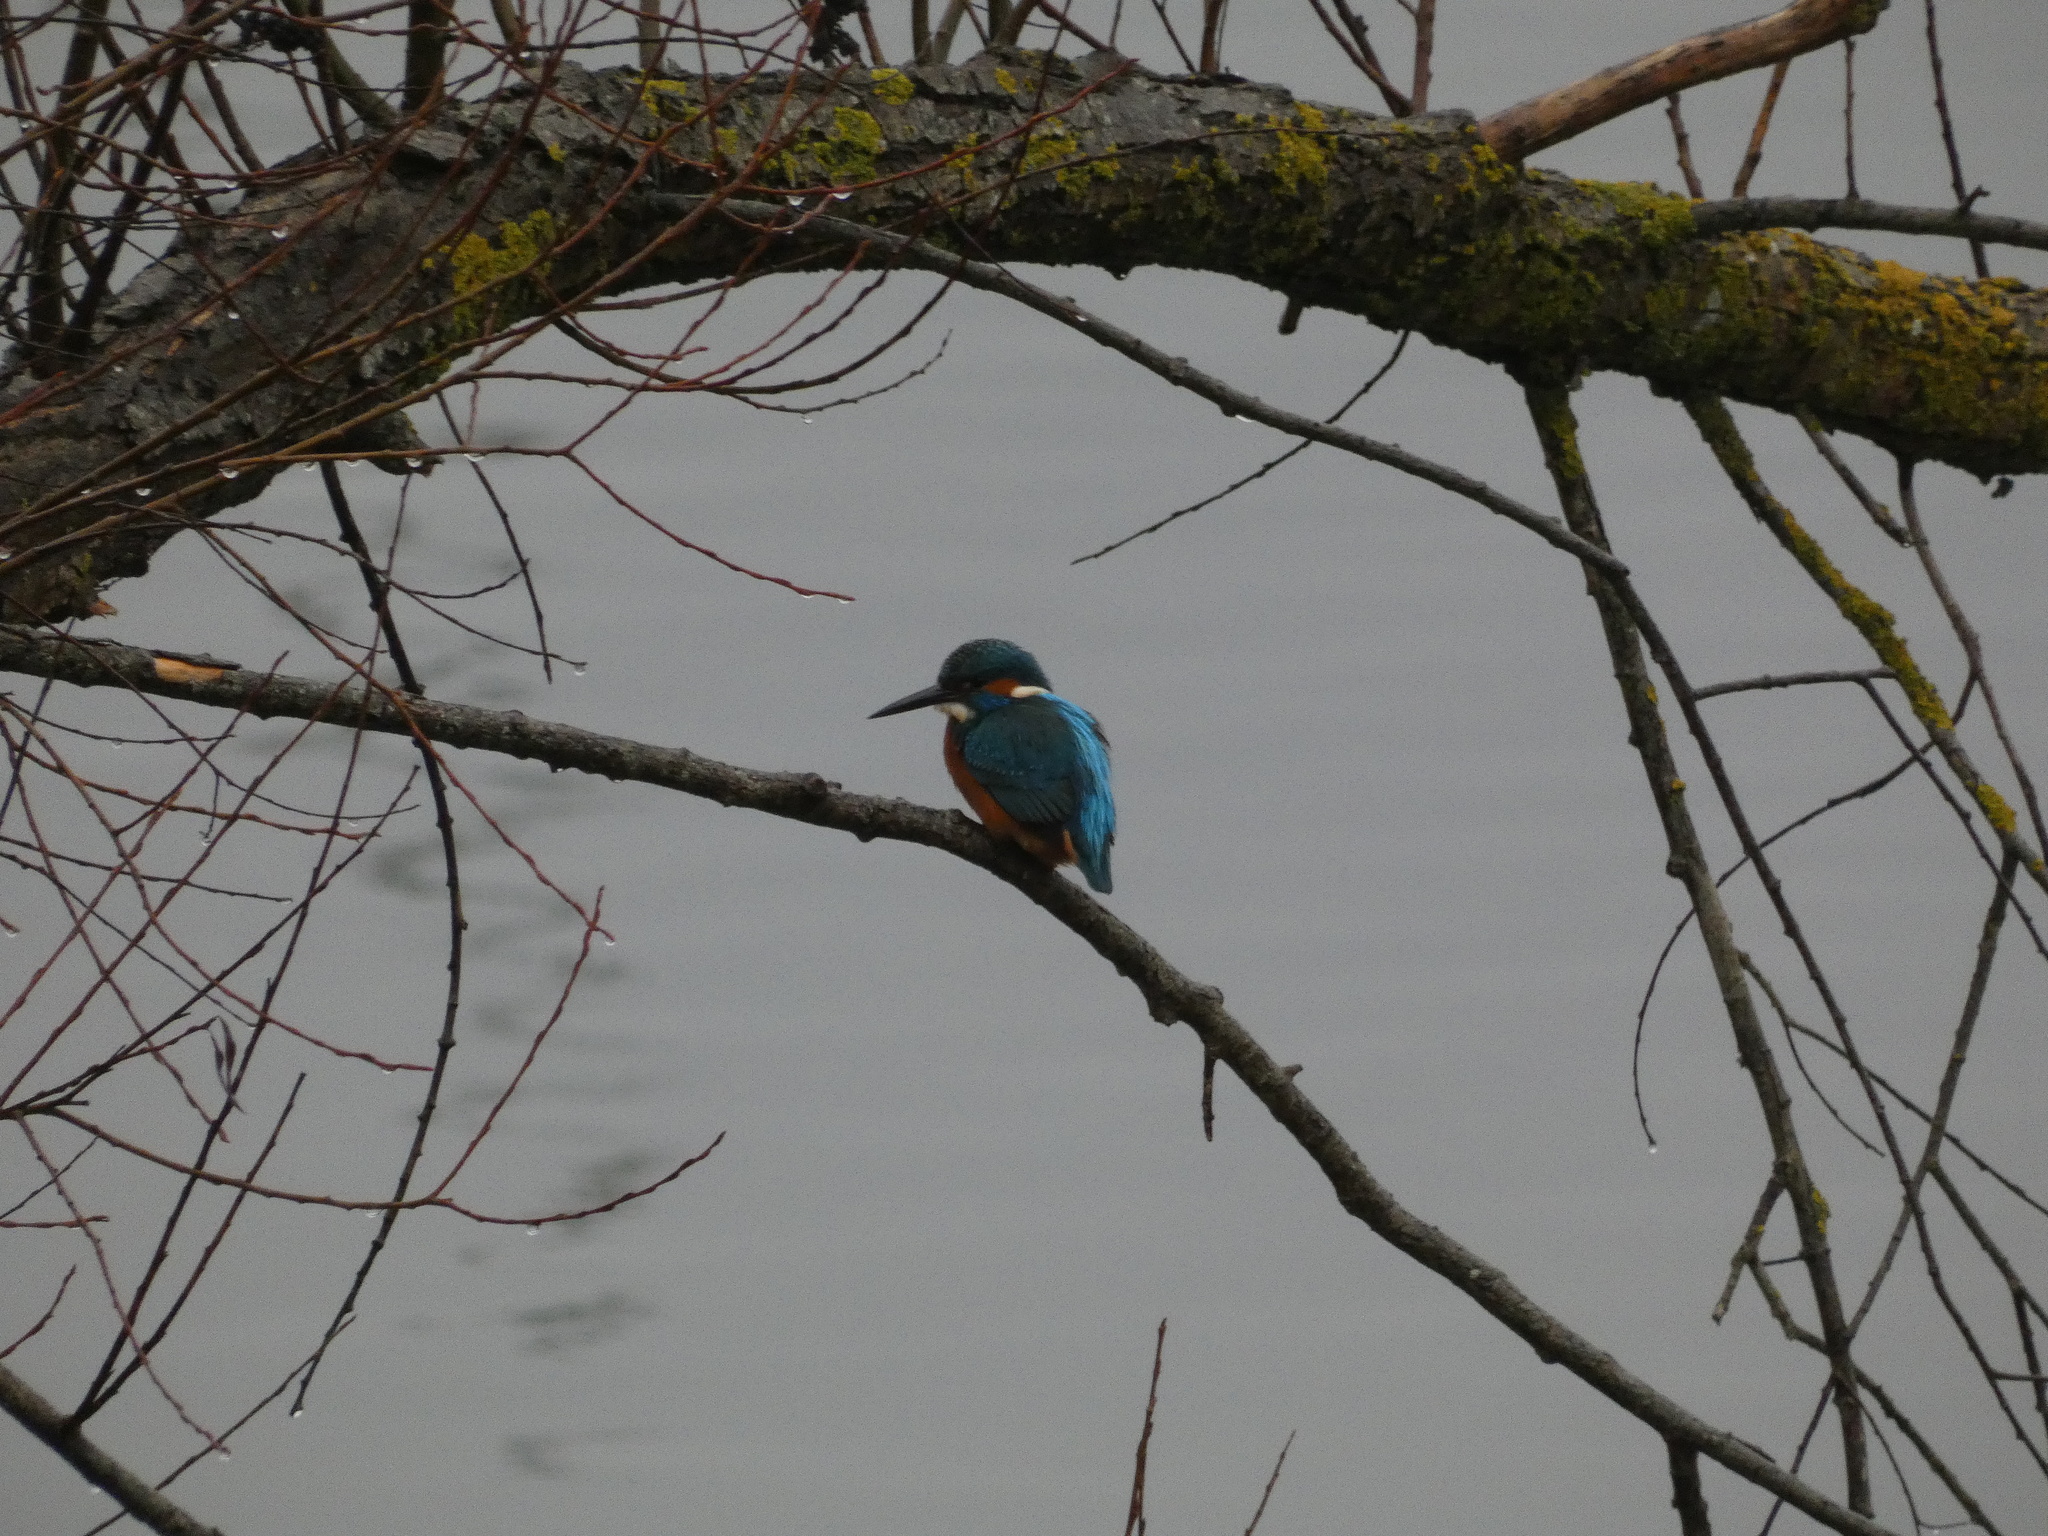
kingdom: Animalia
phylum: Chordata
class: Aves
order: Coraciiformes
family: Alcedinidae
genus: Alcedo
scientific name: Alcedo atthis
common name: Common kingfisher
